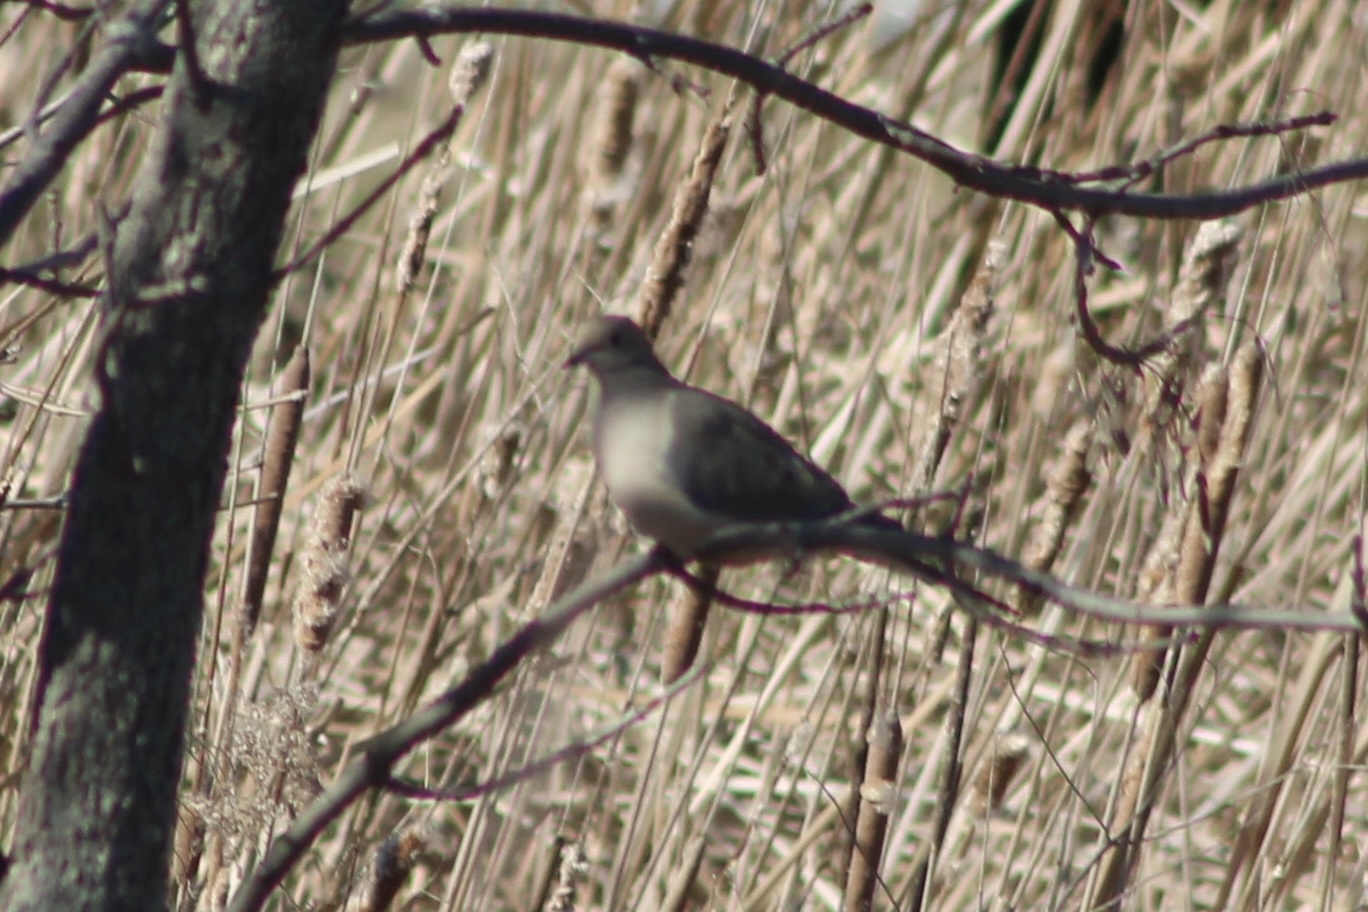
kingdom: Animalia
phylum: Chordata
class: Aves
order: Columbiformes
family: Columbidae
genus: Zenaida
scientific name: Zenaida macroura
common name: Mourning dove
